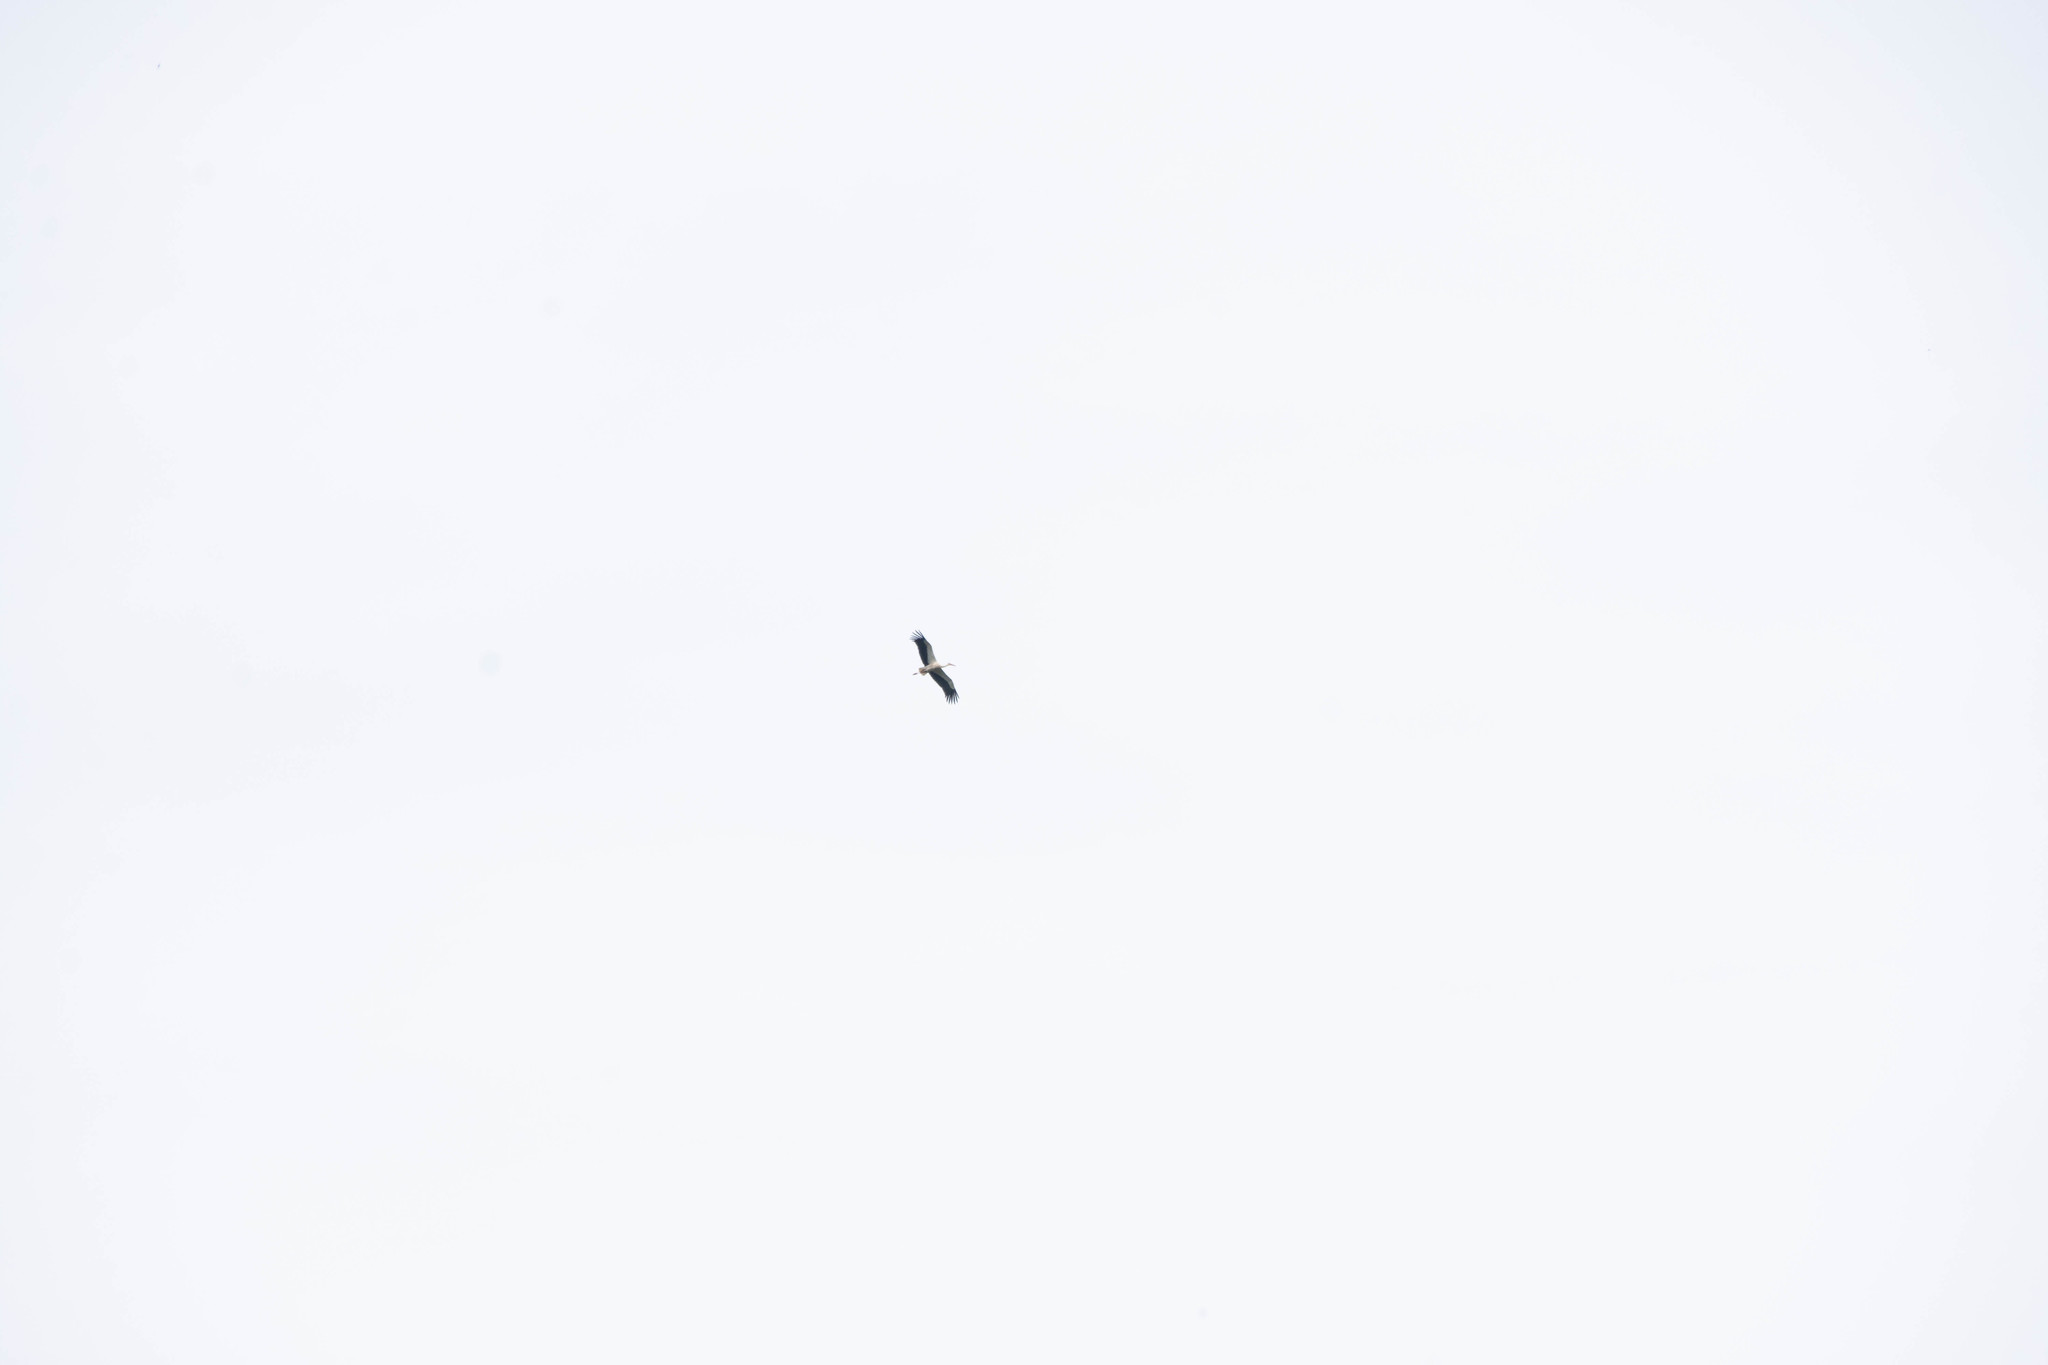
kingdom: Animalia
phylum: Chordata
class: Aves
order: Ciconiiformes
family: Ciconiidae
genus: Ciconia
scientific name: Ciconia ciconia
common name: White stork
